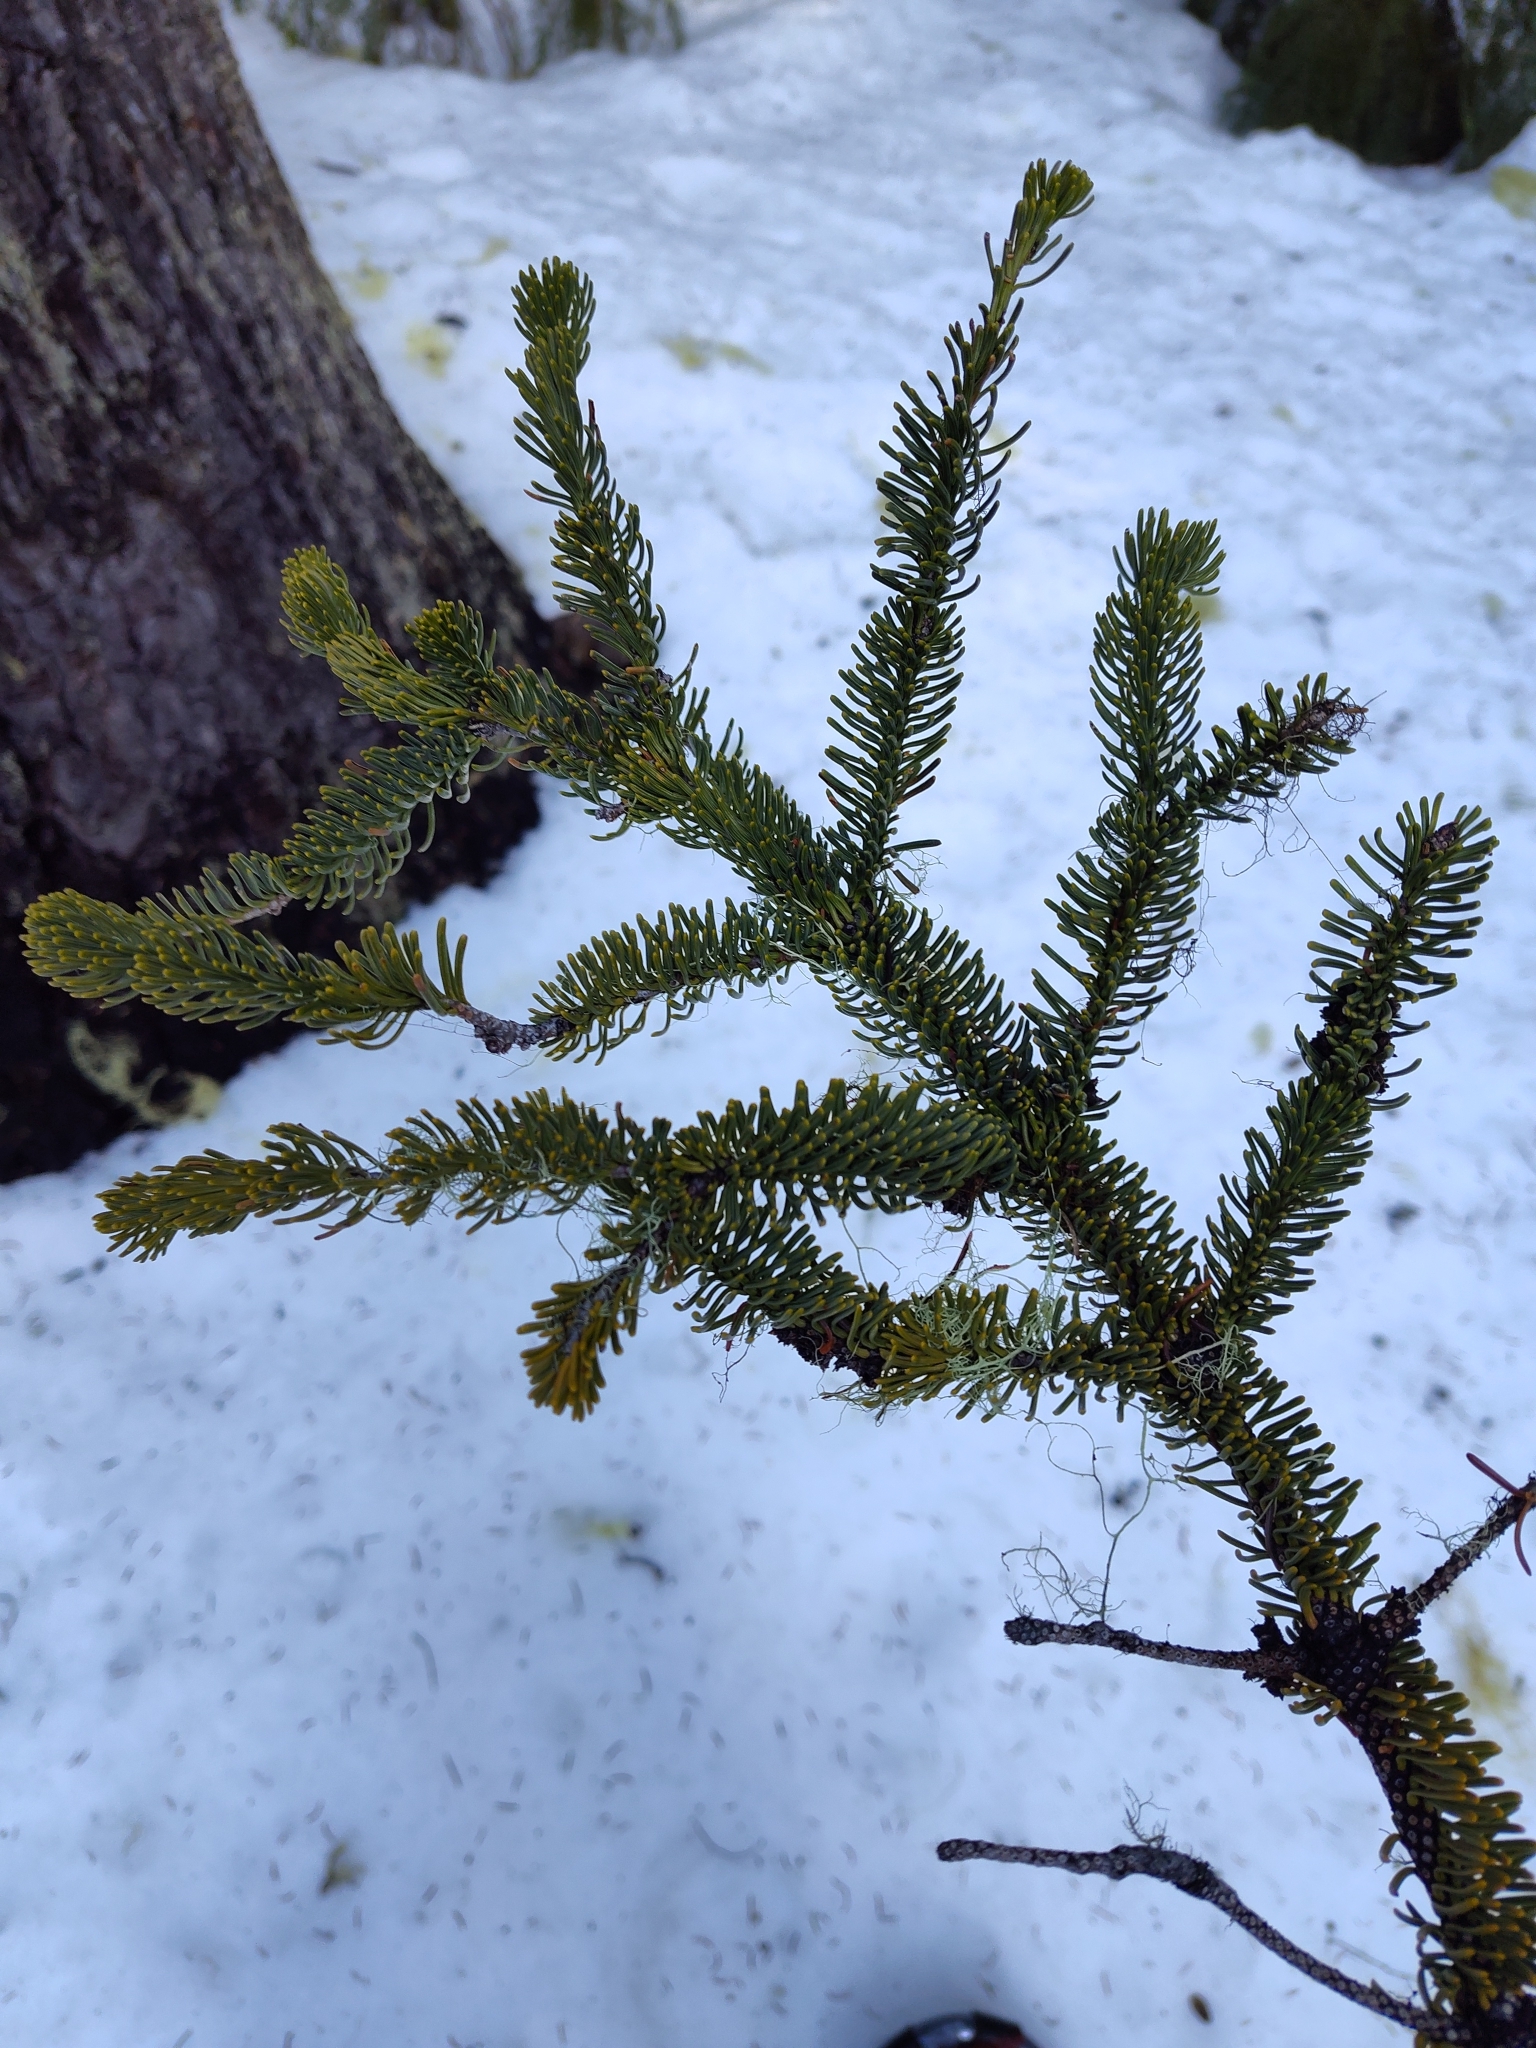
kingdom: Plantae
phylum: Tracheophyta
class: Pinopsida
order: Pinales
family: Pinaceae
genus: Abies
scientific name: Abies procera
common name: Noble fir
